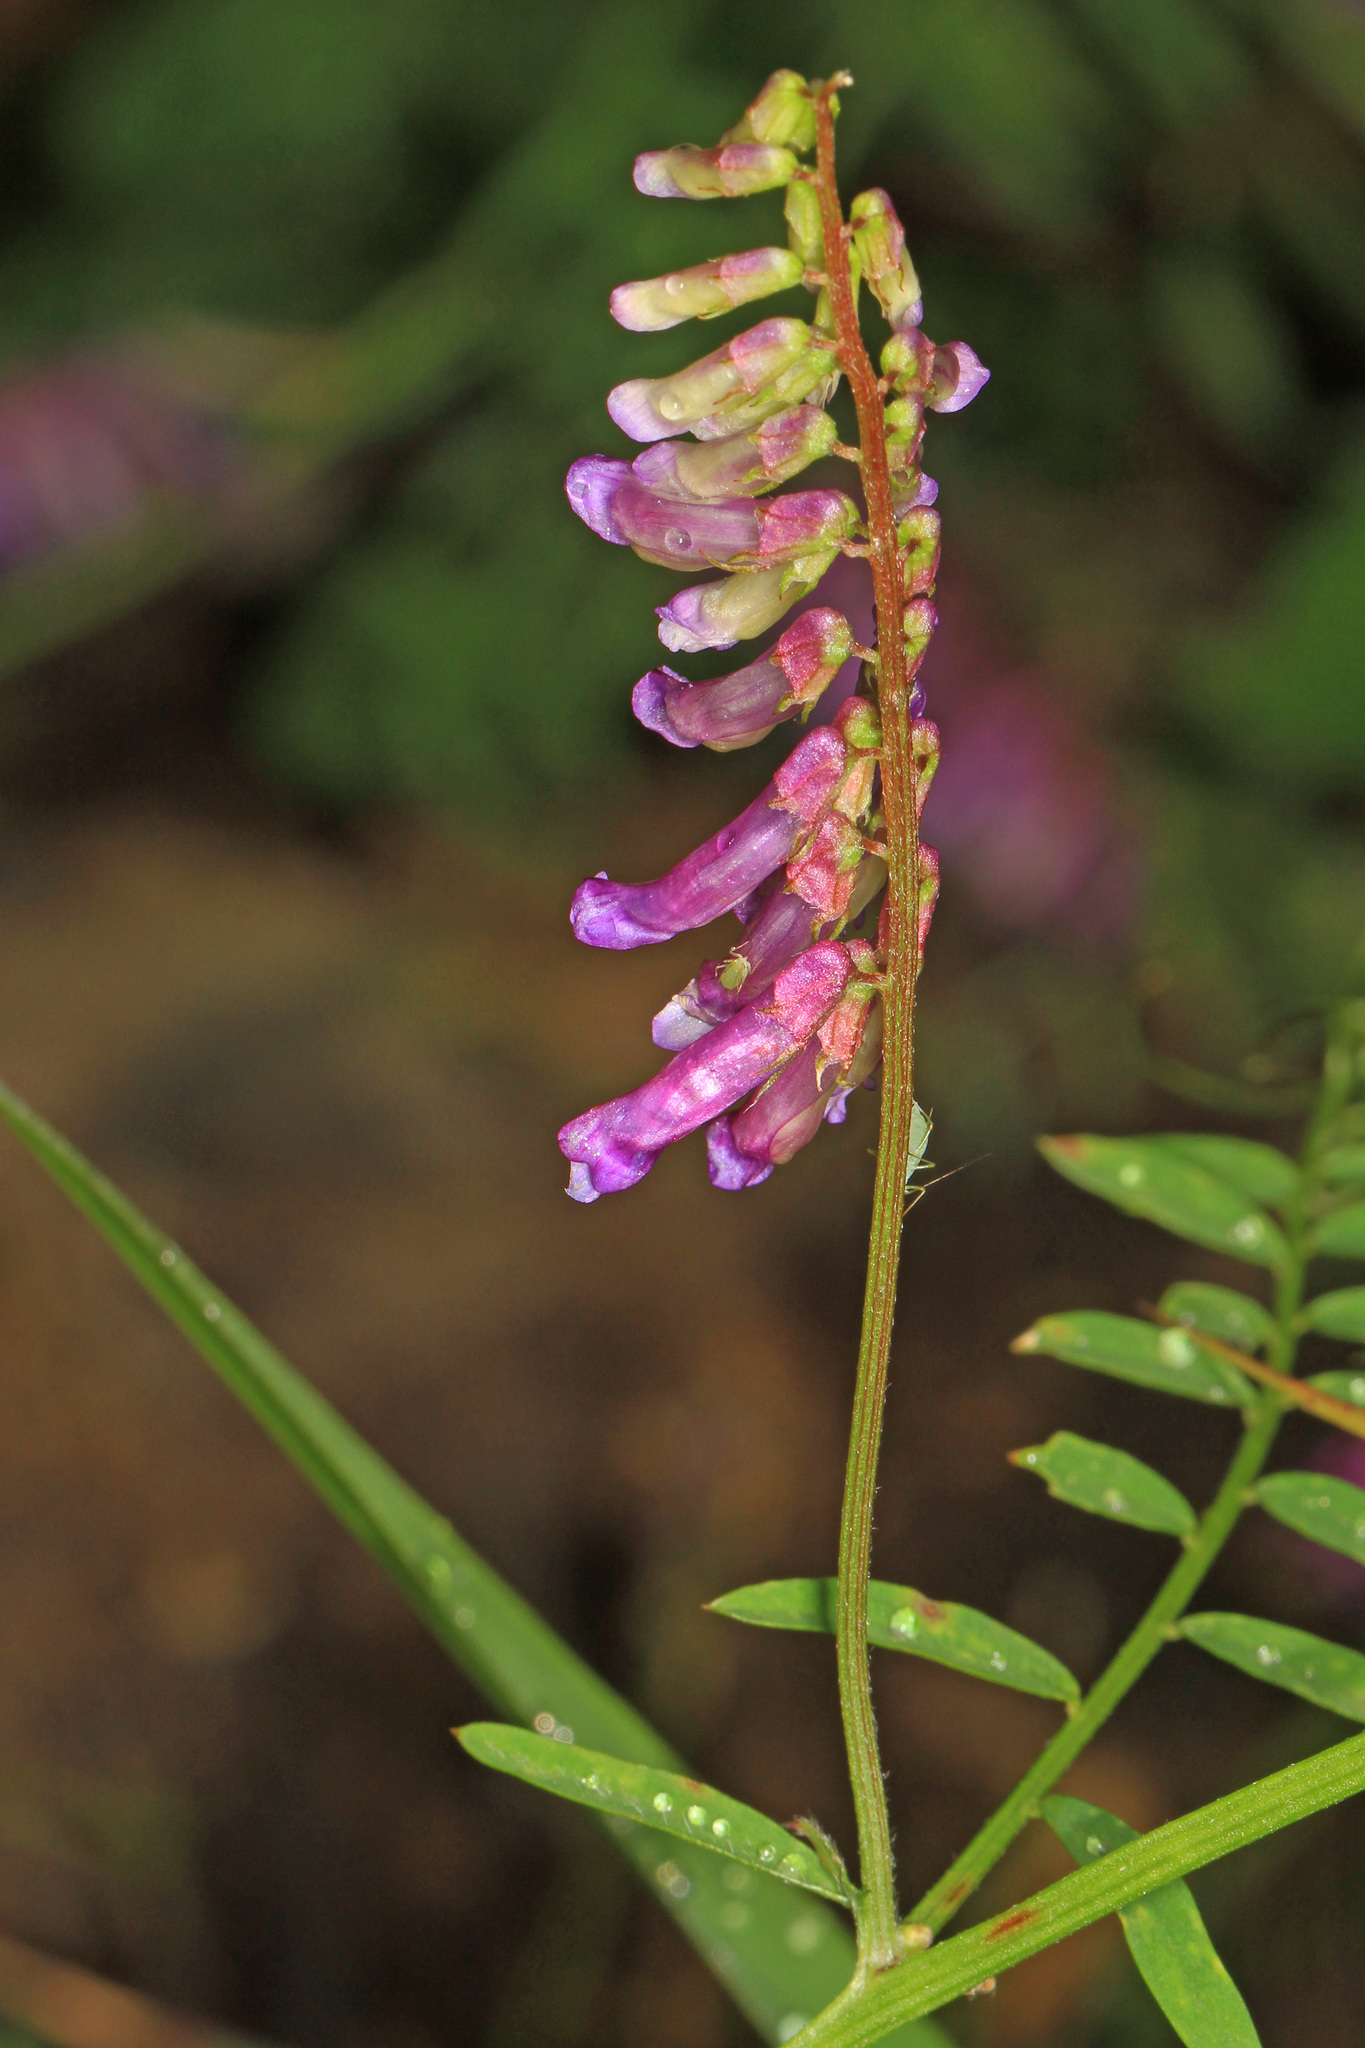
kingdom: Plantae
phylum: Tracheophyta
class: Magnoliopsida
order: Fabales
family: Fabaceae
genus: Vicia
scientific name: Vicia villosa
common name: Fodder vetch
